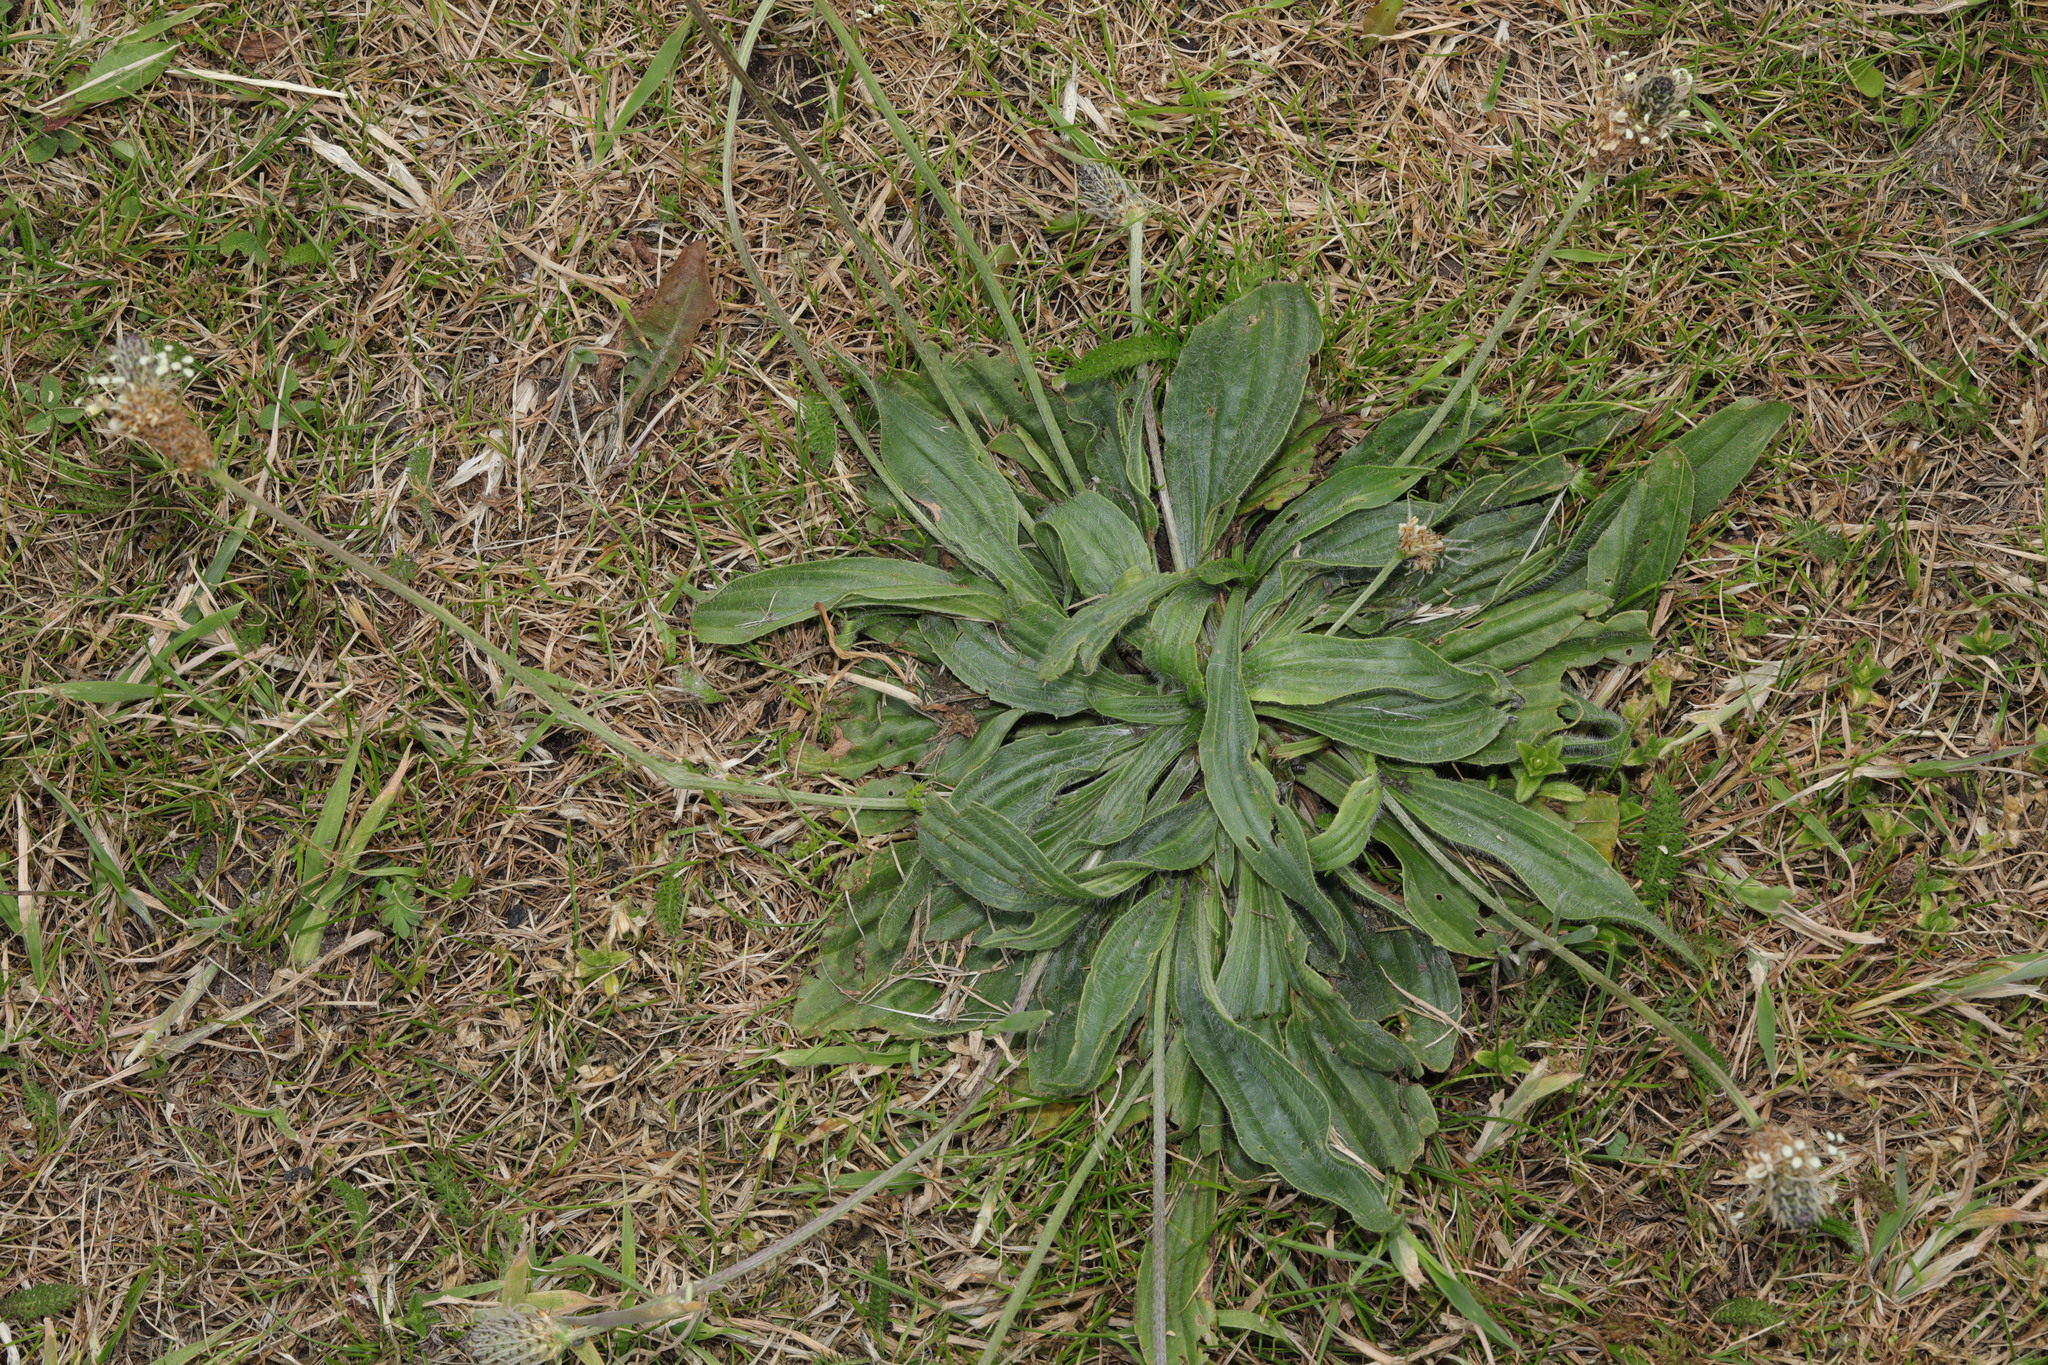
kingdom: Plantae
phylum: Tracheophyta
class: Magnoliopsida
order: Lamiales
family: Plantaginaceae
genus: Plantago
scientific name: Plantago lanceolata
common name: Ribwort plantain
